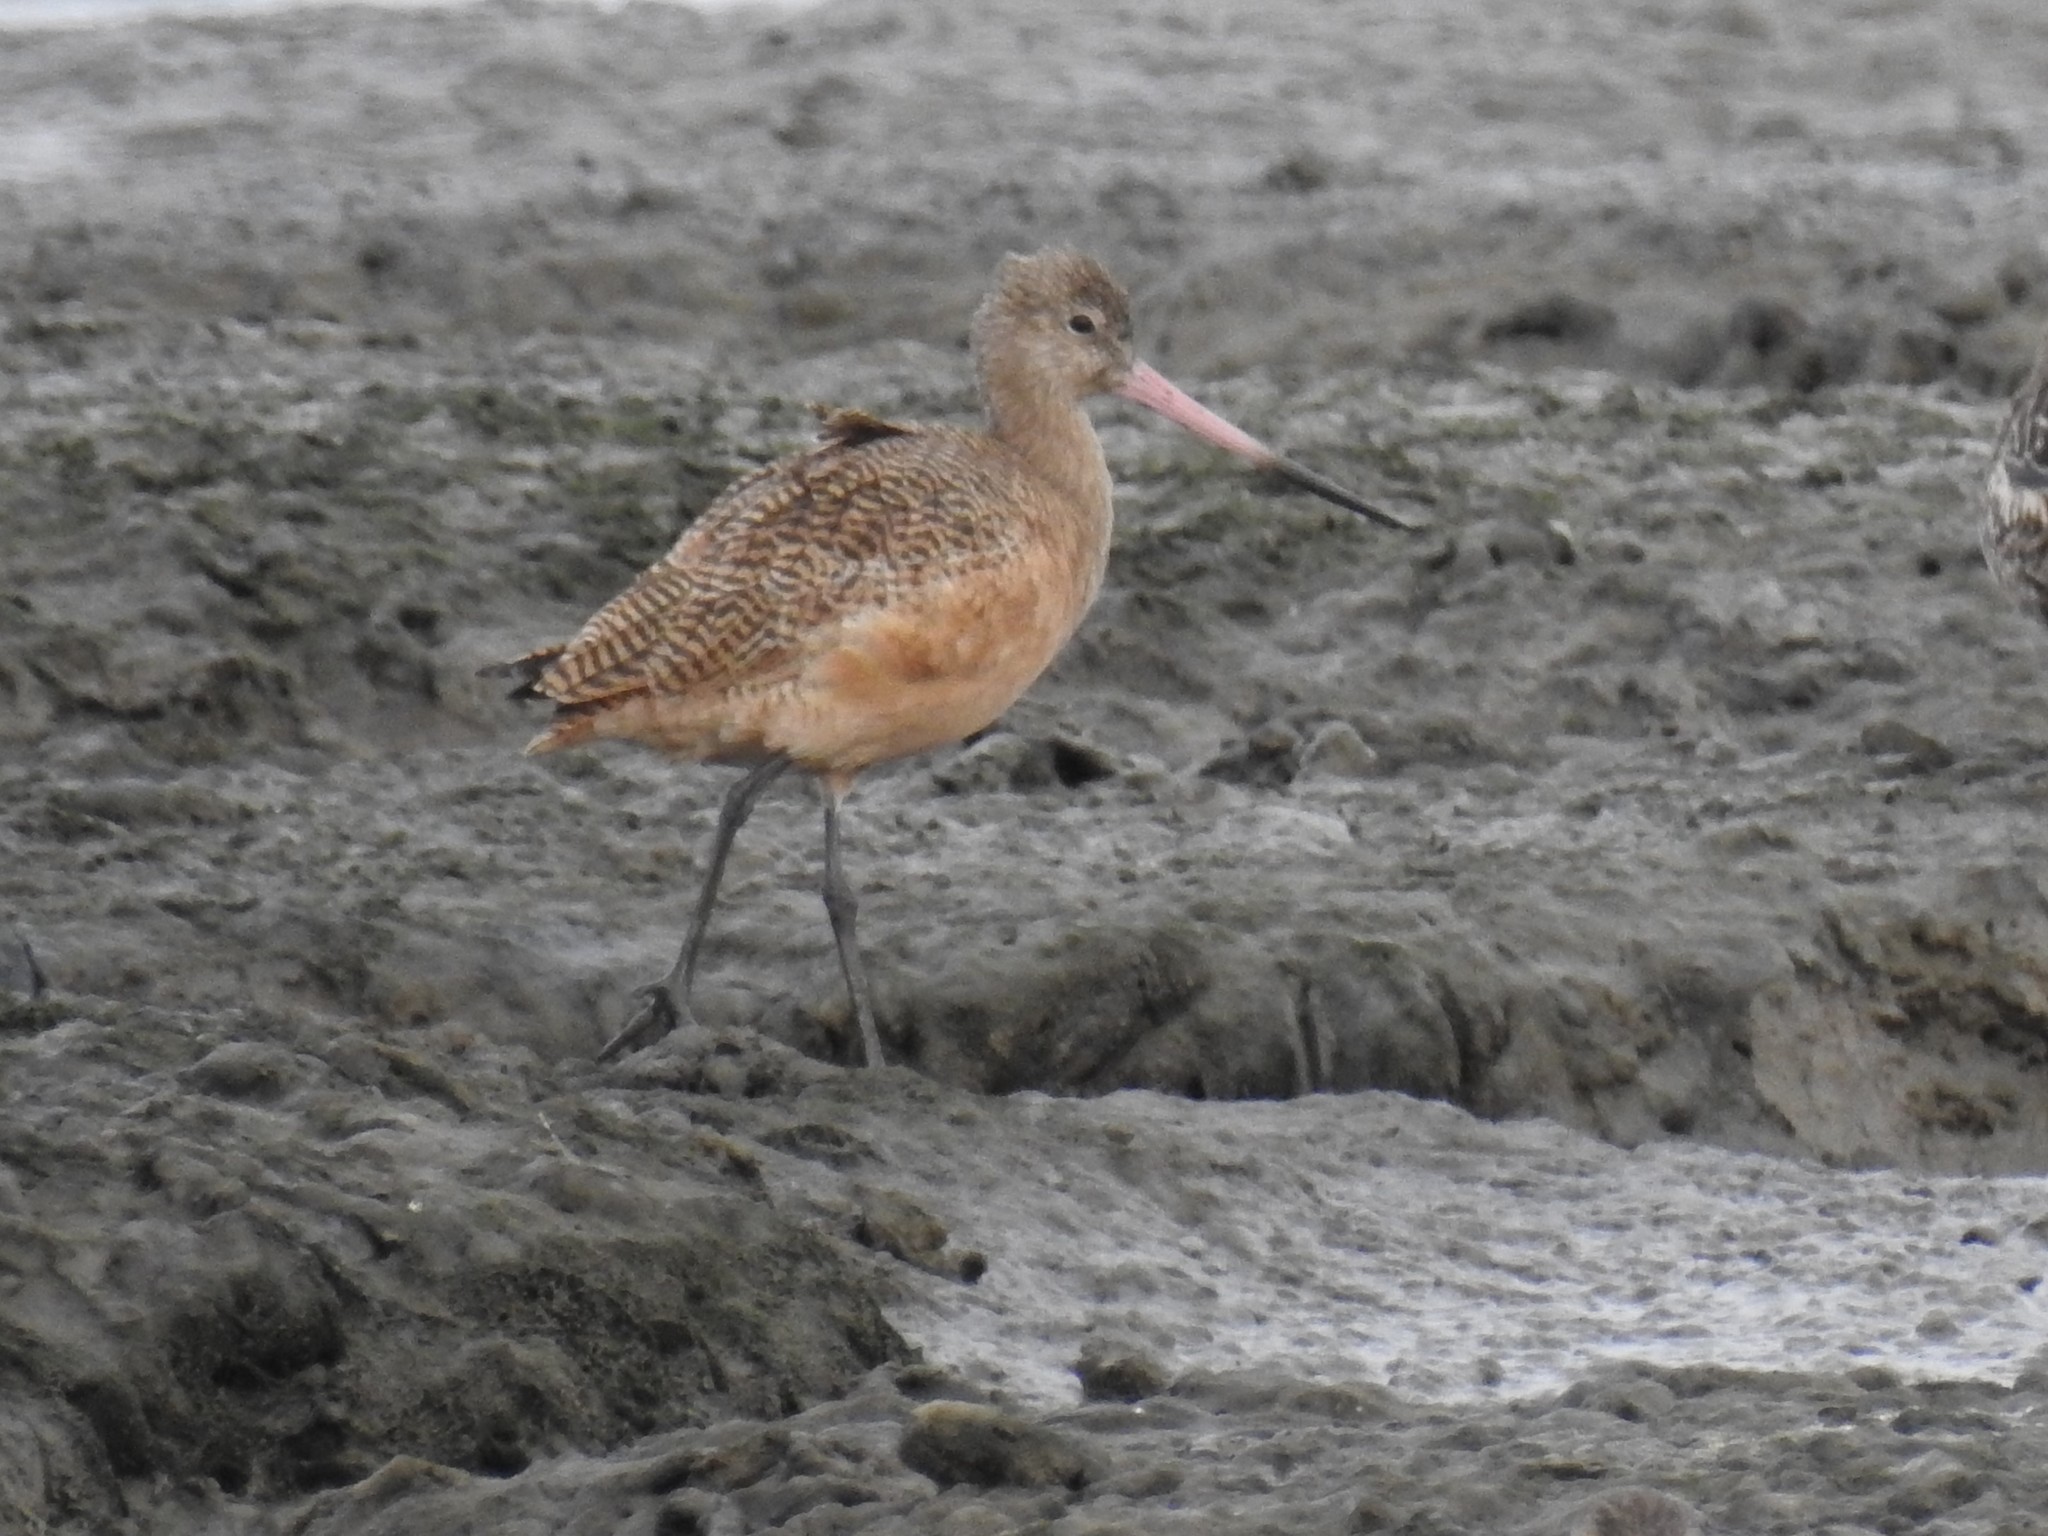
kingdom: Animalia
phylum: Chordata
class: Aves
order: Charadriiformes
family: Scolopacidae
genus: Limosa
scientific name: Limosa fedoa
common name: Marbled godwit
